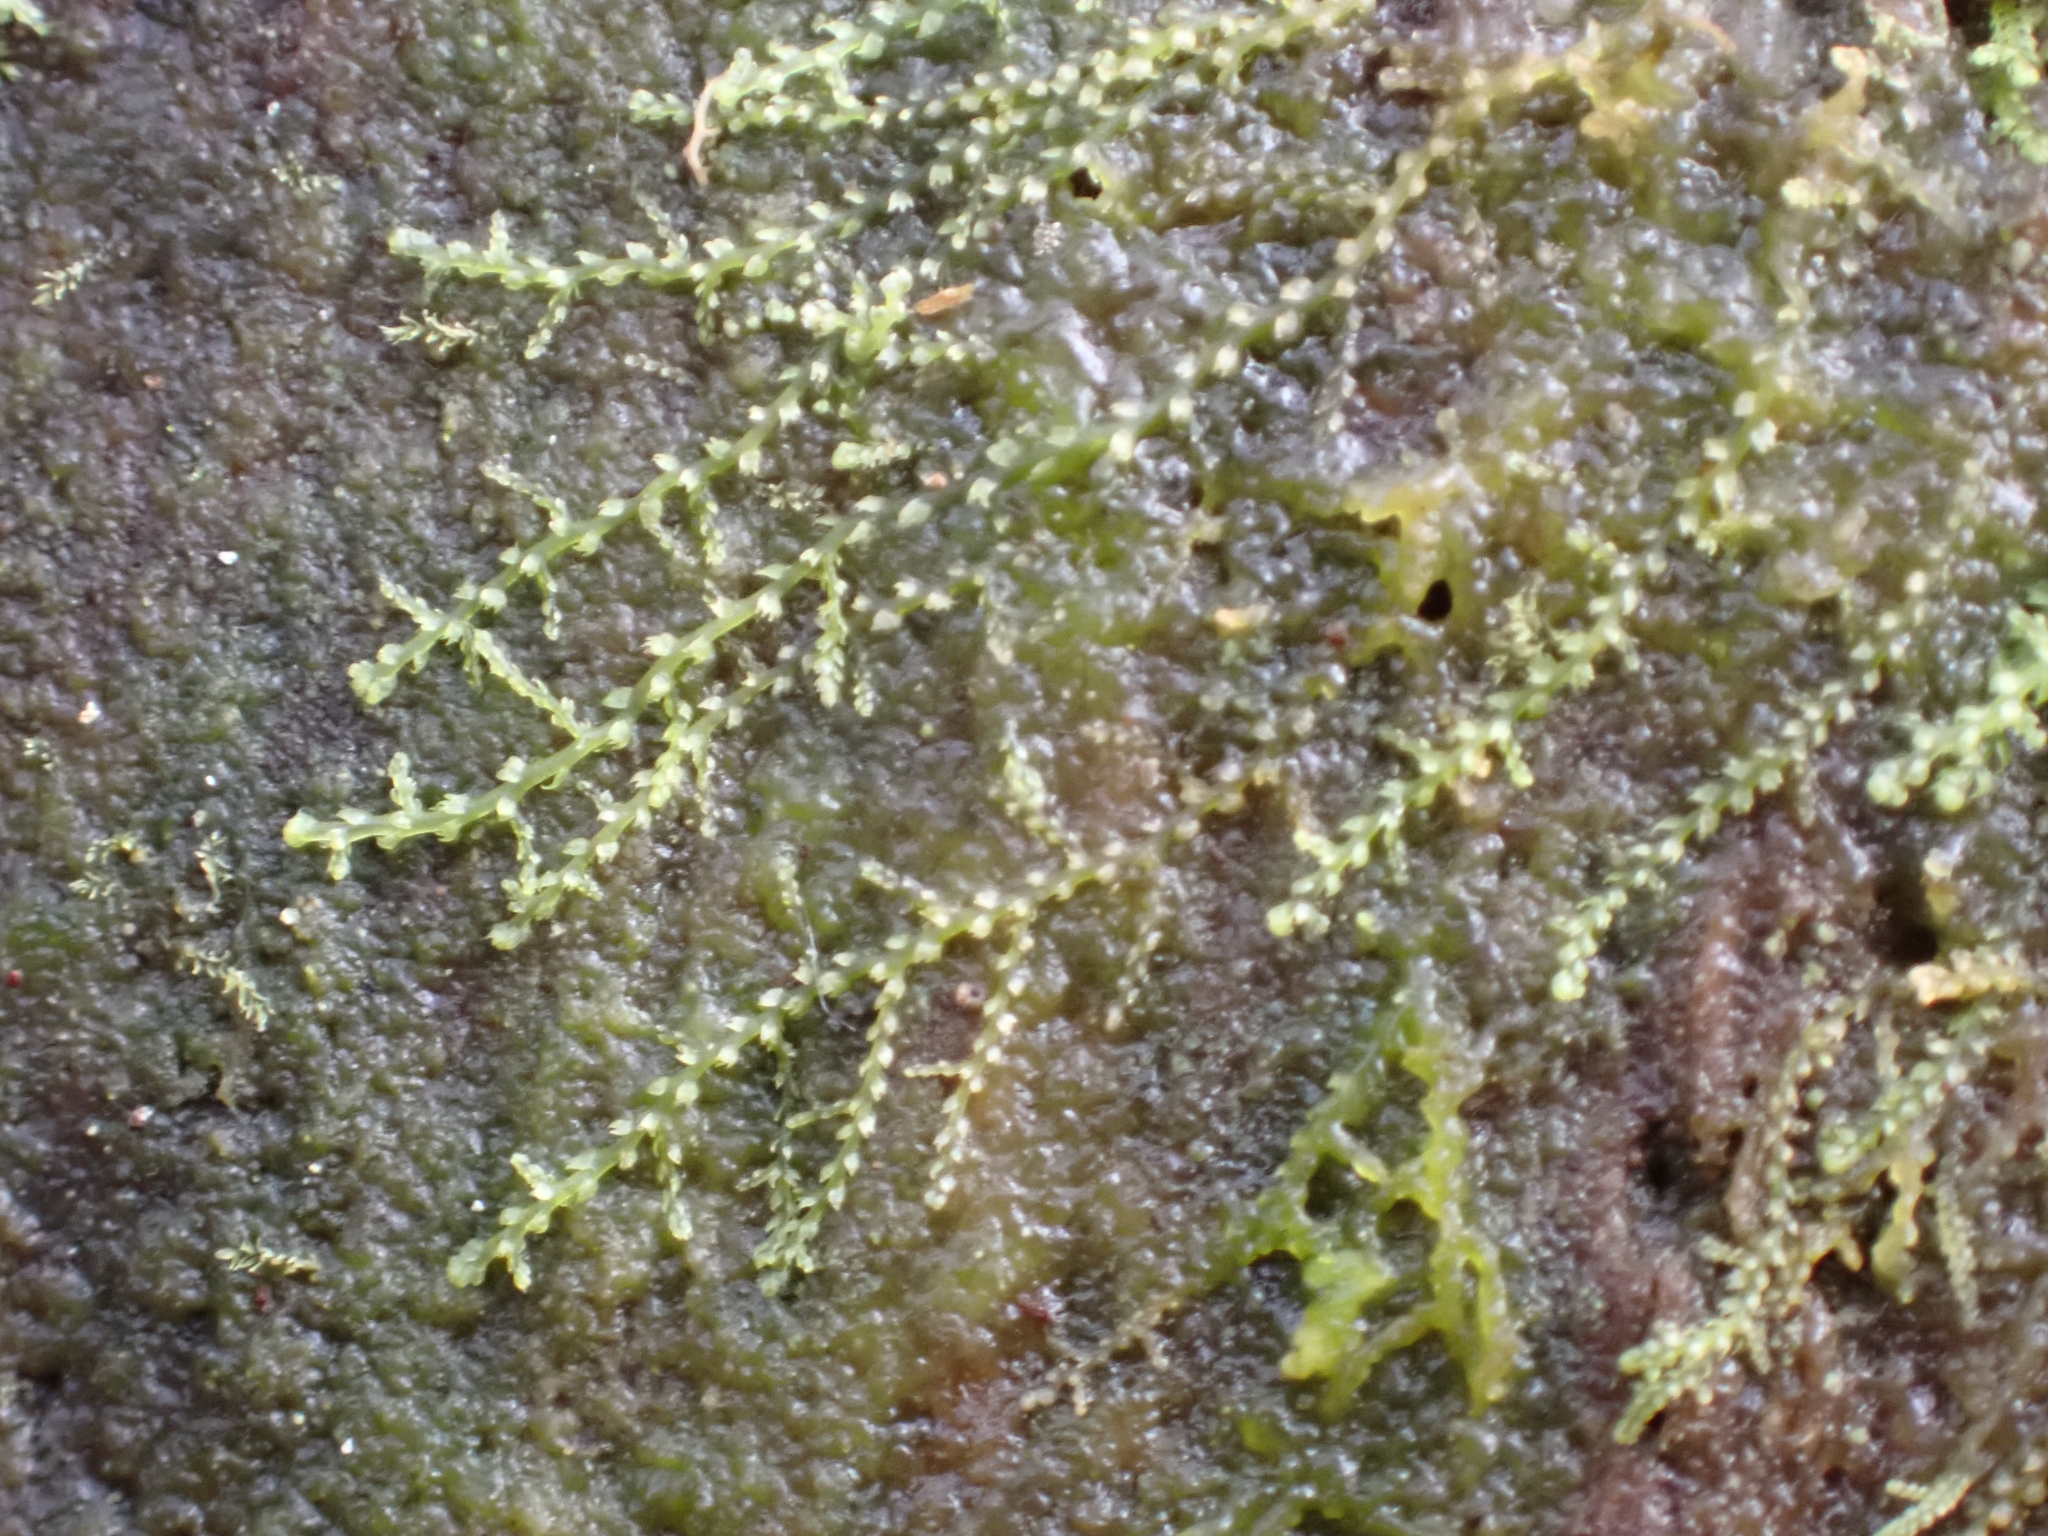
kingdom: Plantae
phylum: Marchantiophyta
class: Jungermanniopsida
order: Jungermanniales
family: Lepidoziaceae
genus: Lepidozia
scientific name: Lepidozia reptans
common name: Creeping fingerwort
